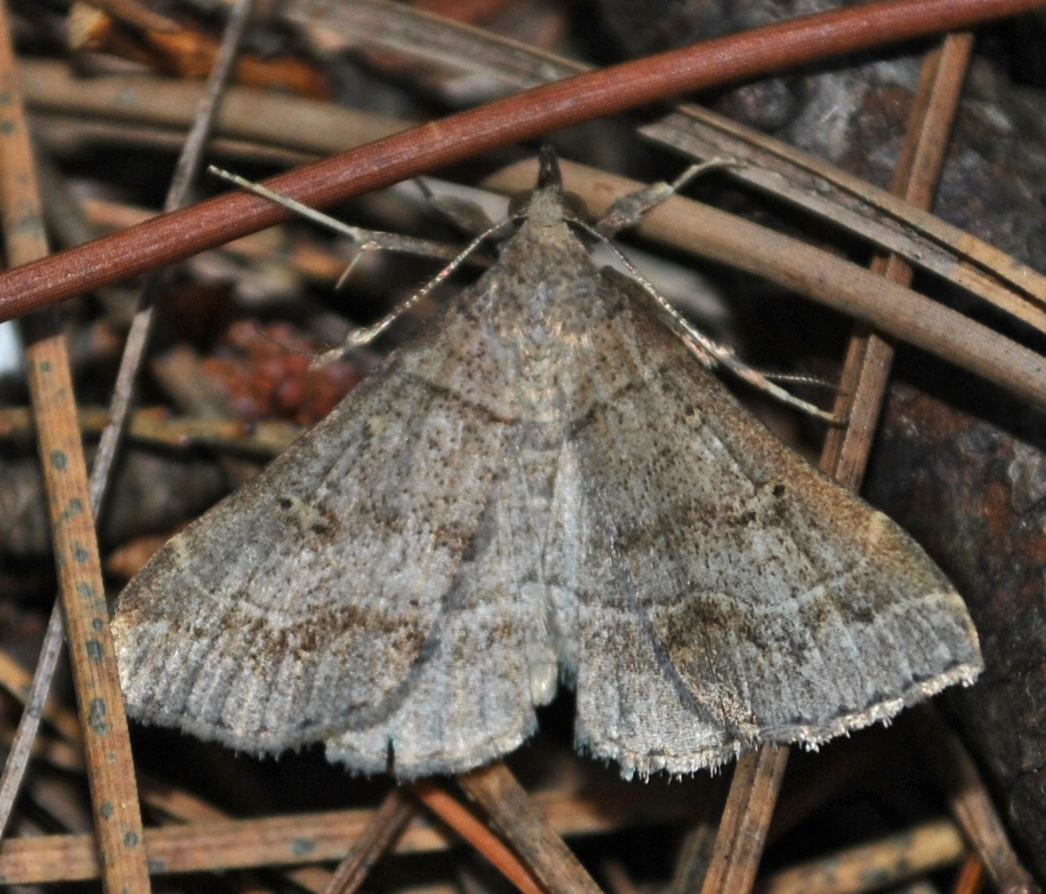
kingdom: Animalia
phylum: Arthropoda
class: Insecta
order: Lepidoptera
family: Erebidae
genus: Renia
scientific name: Renia flavipunctalis
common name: Yellow-spotted renia moth
